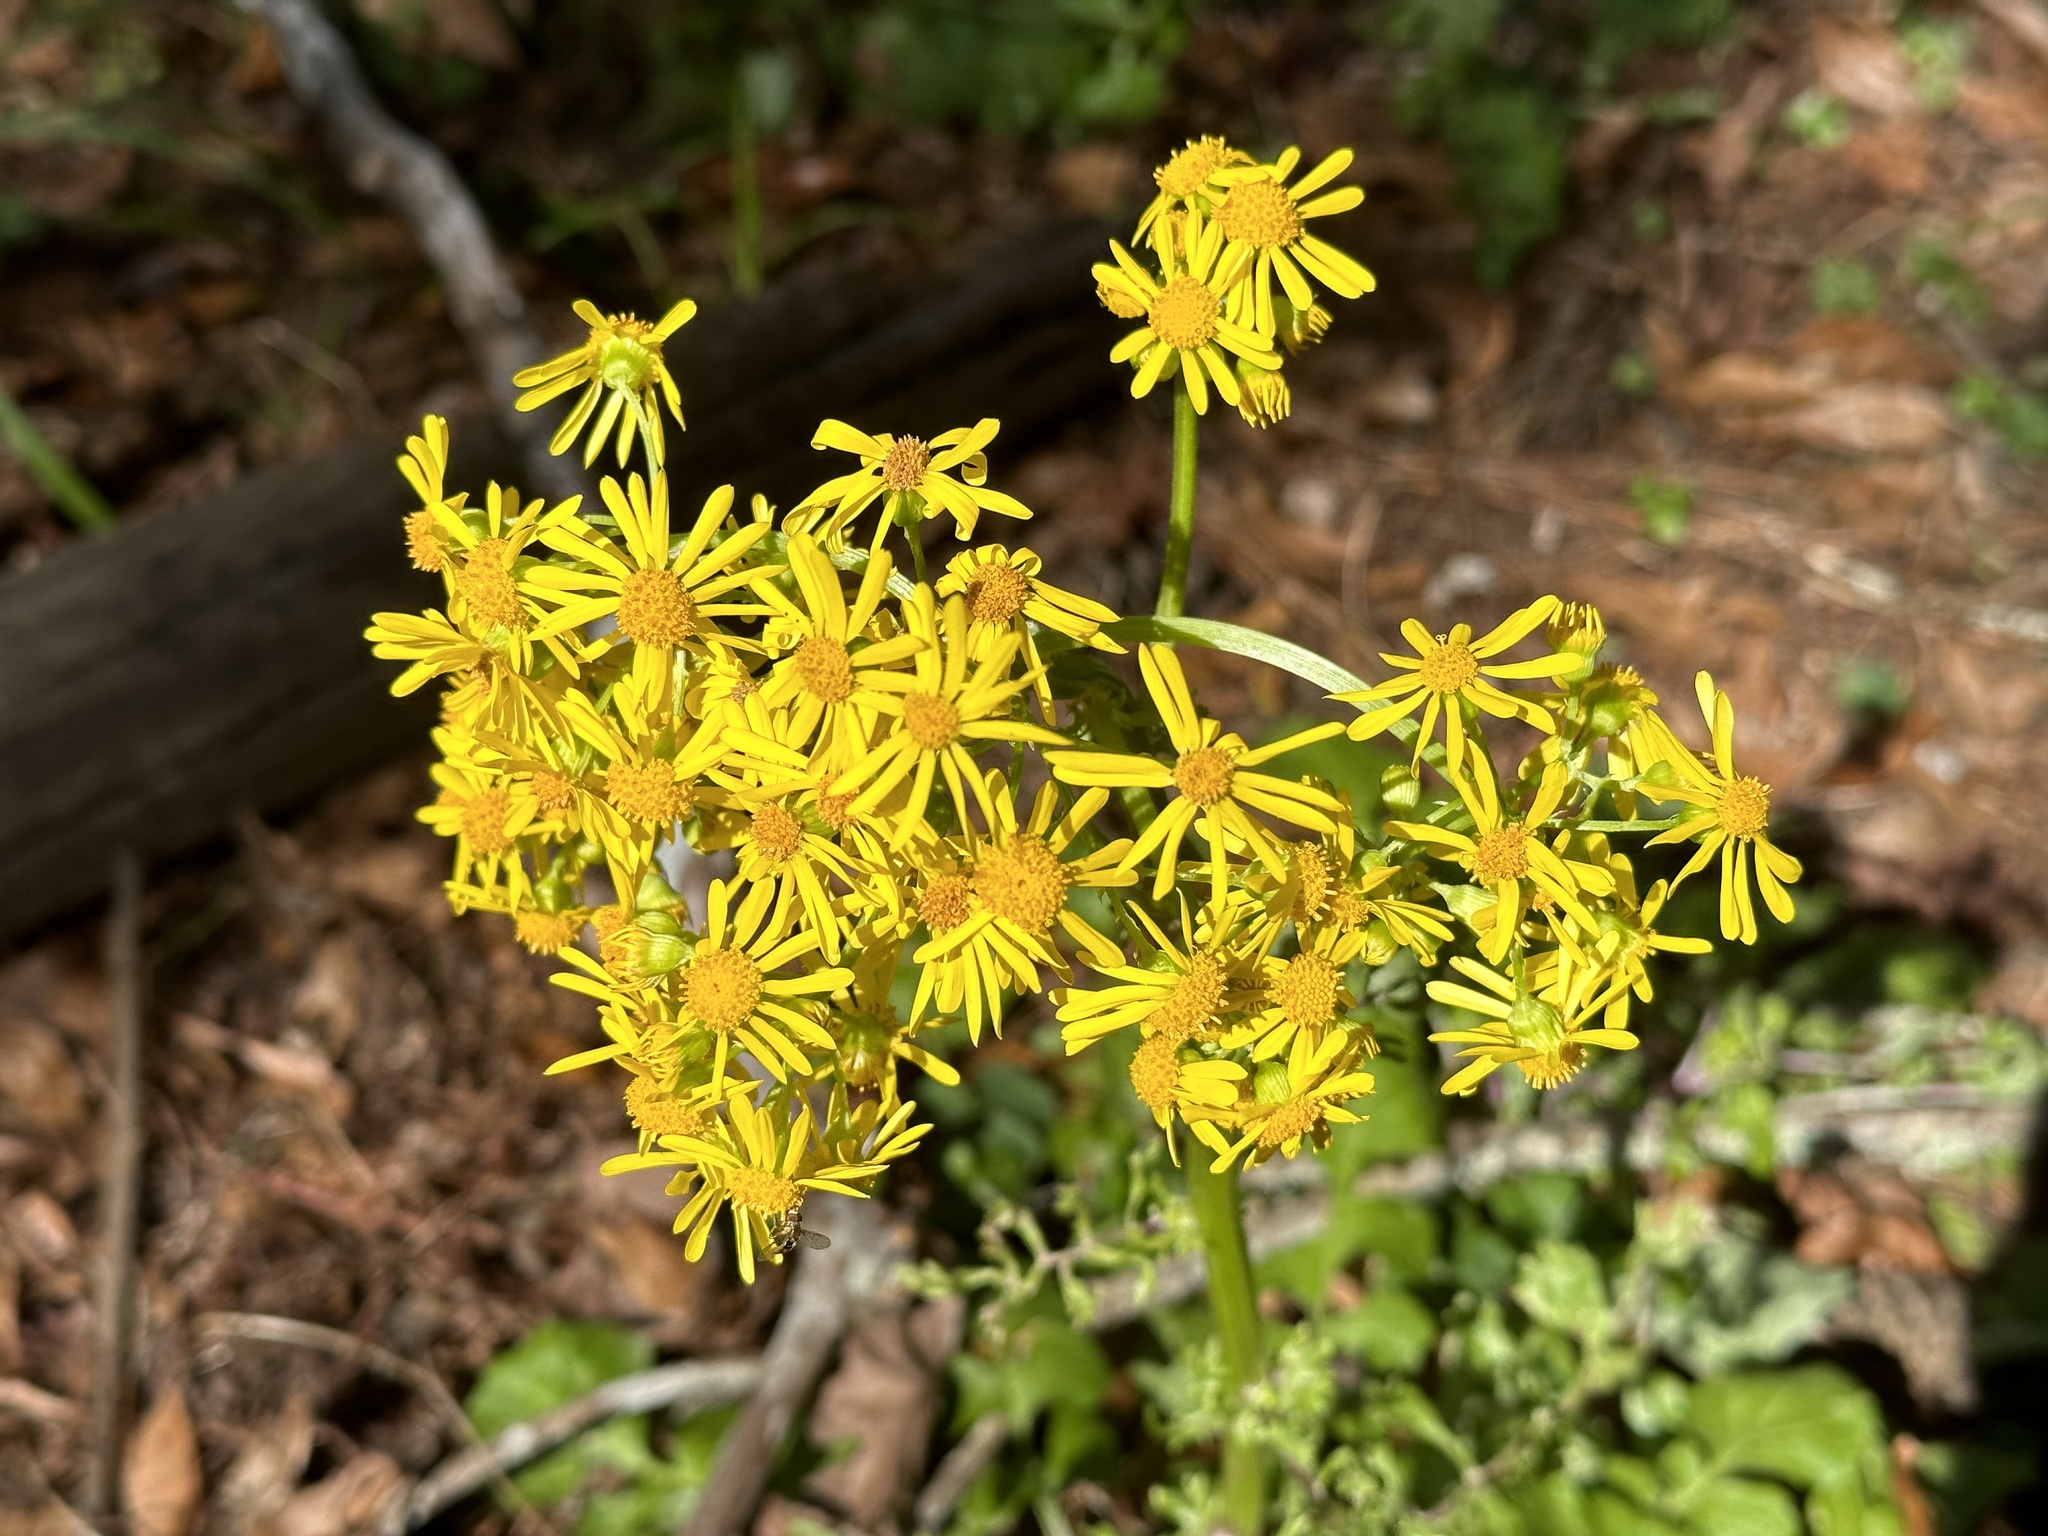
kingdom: Plantae
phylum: Tracheophyta
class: Magnoliopsida
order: Asterales
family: Asteraceae
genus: Packera
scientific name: Packera glabella
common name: Butterweed
